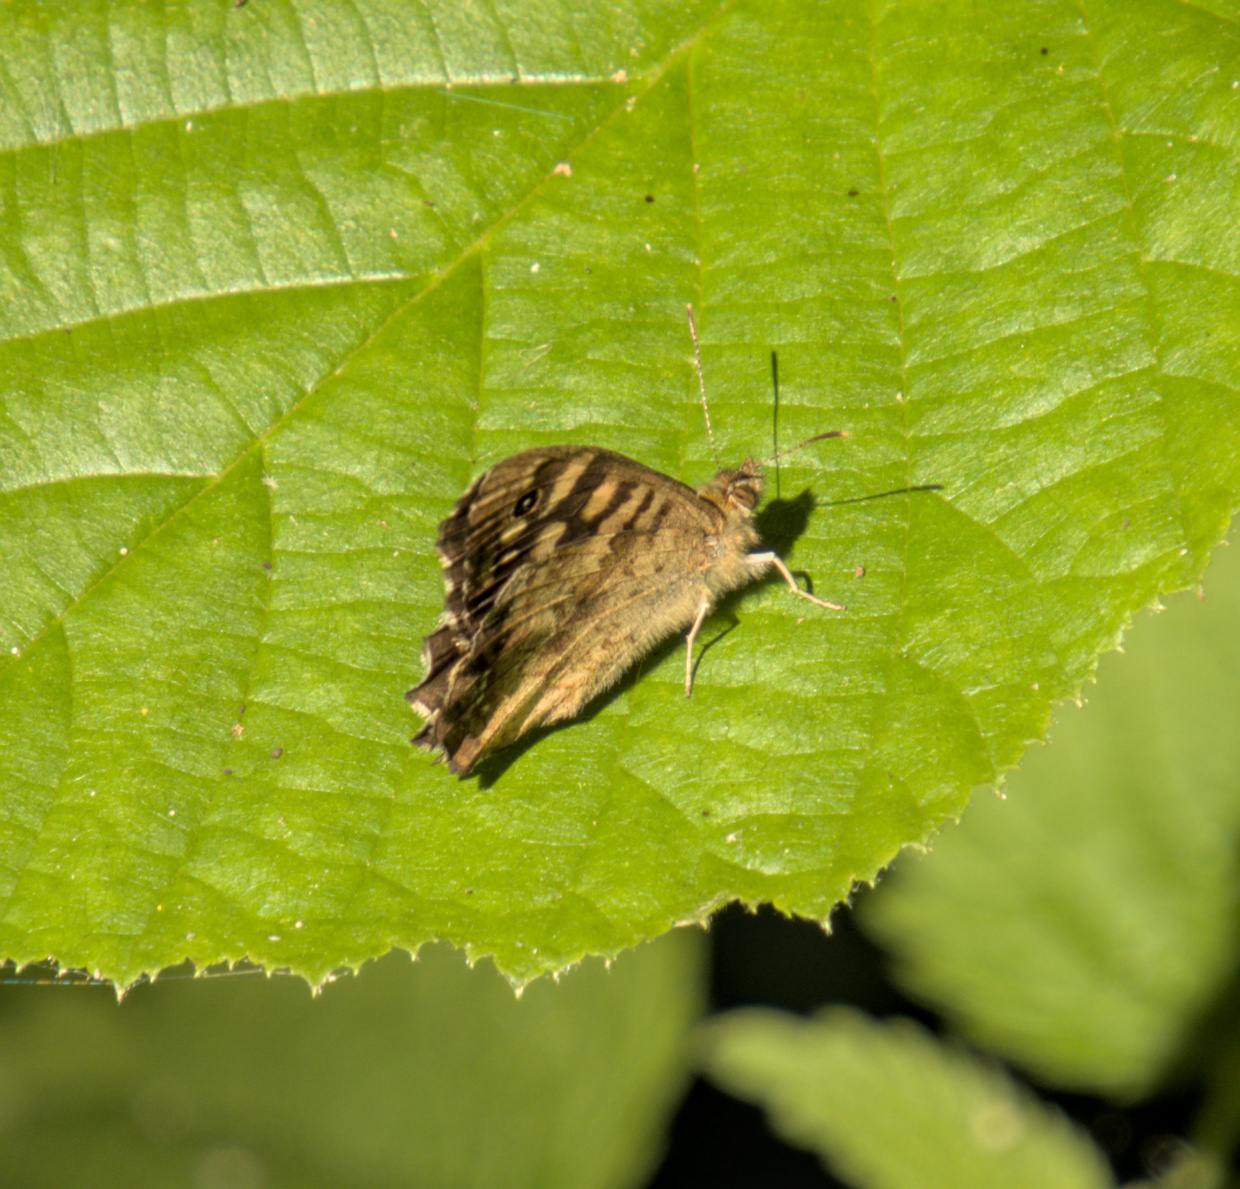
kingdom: Animalia
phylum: Arthropoda
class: Insecta
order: Lepidoptera
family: Nymphalidae
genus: Pararge
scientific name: Pararge aegeria
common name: Speckled wood
